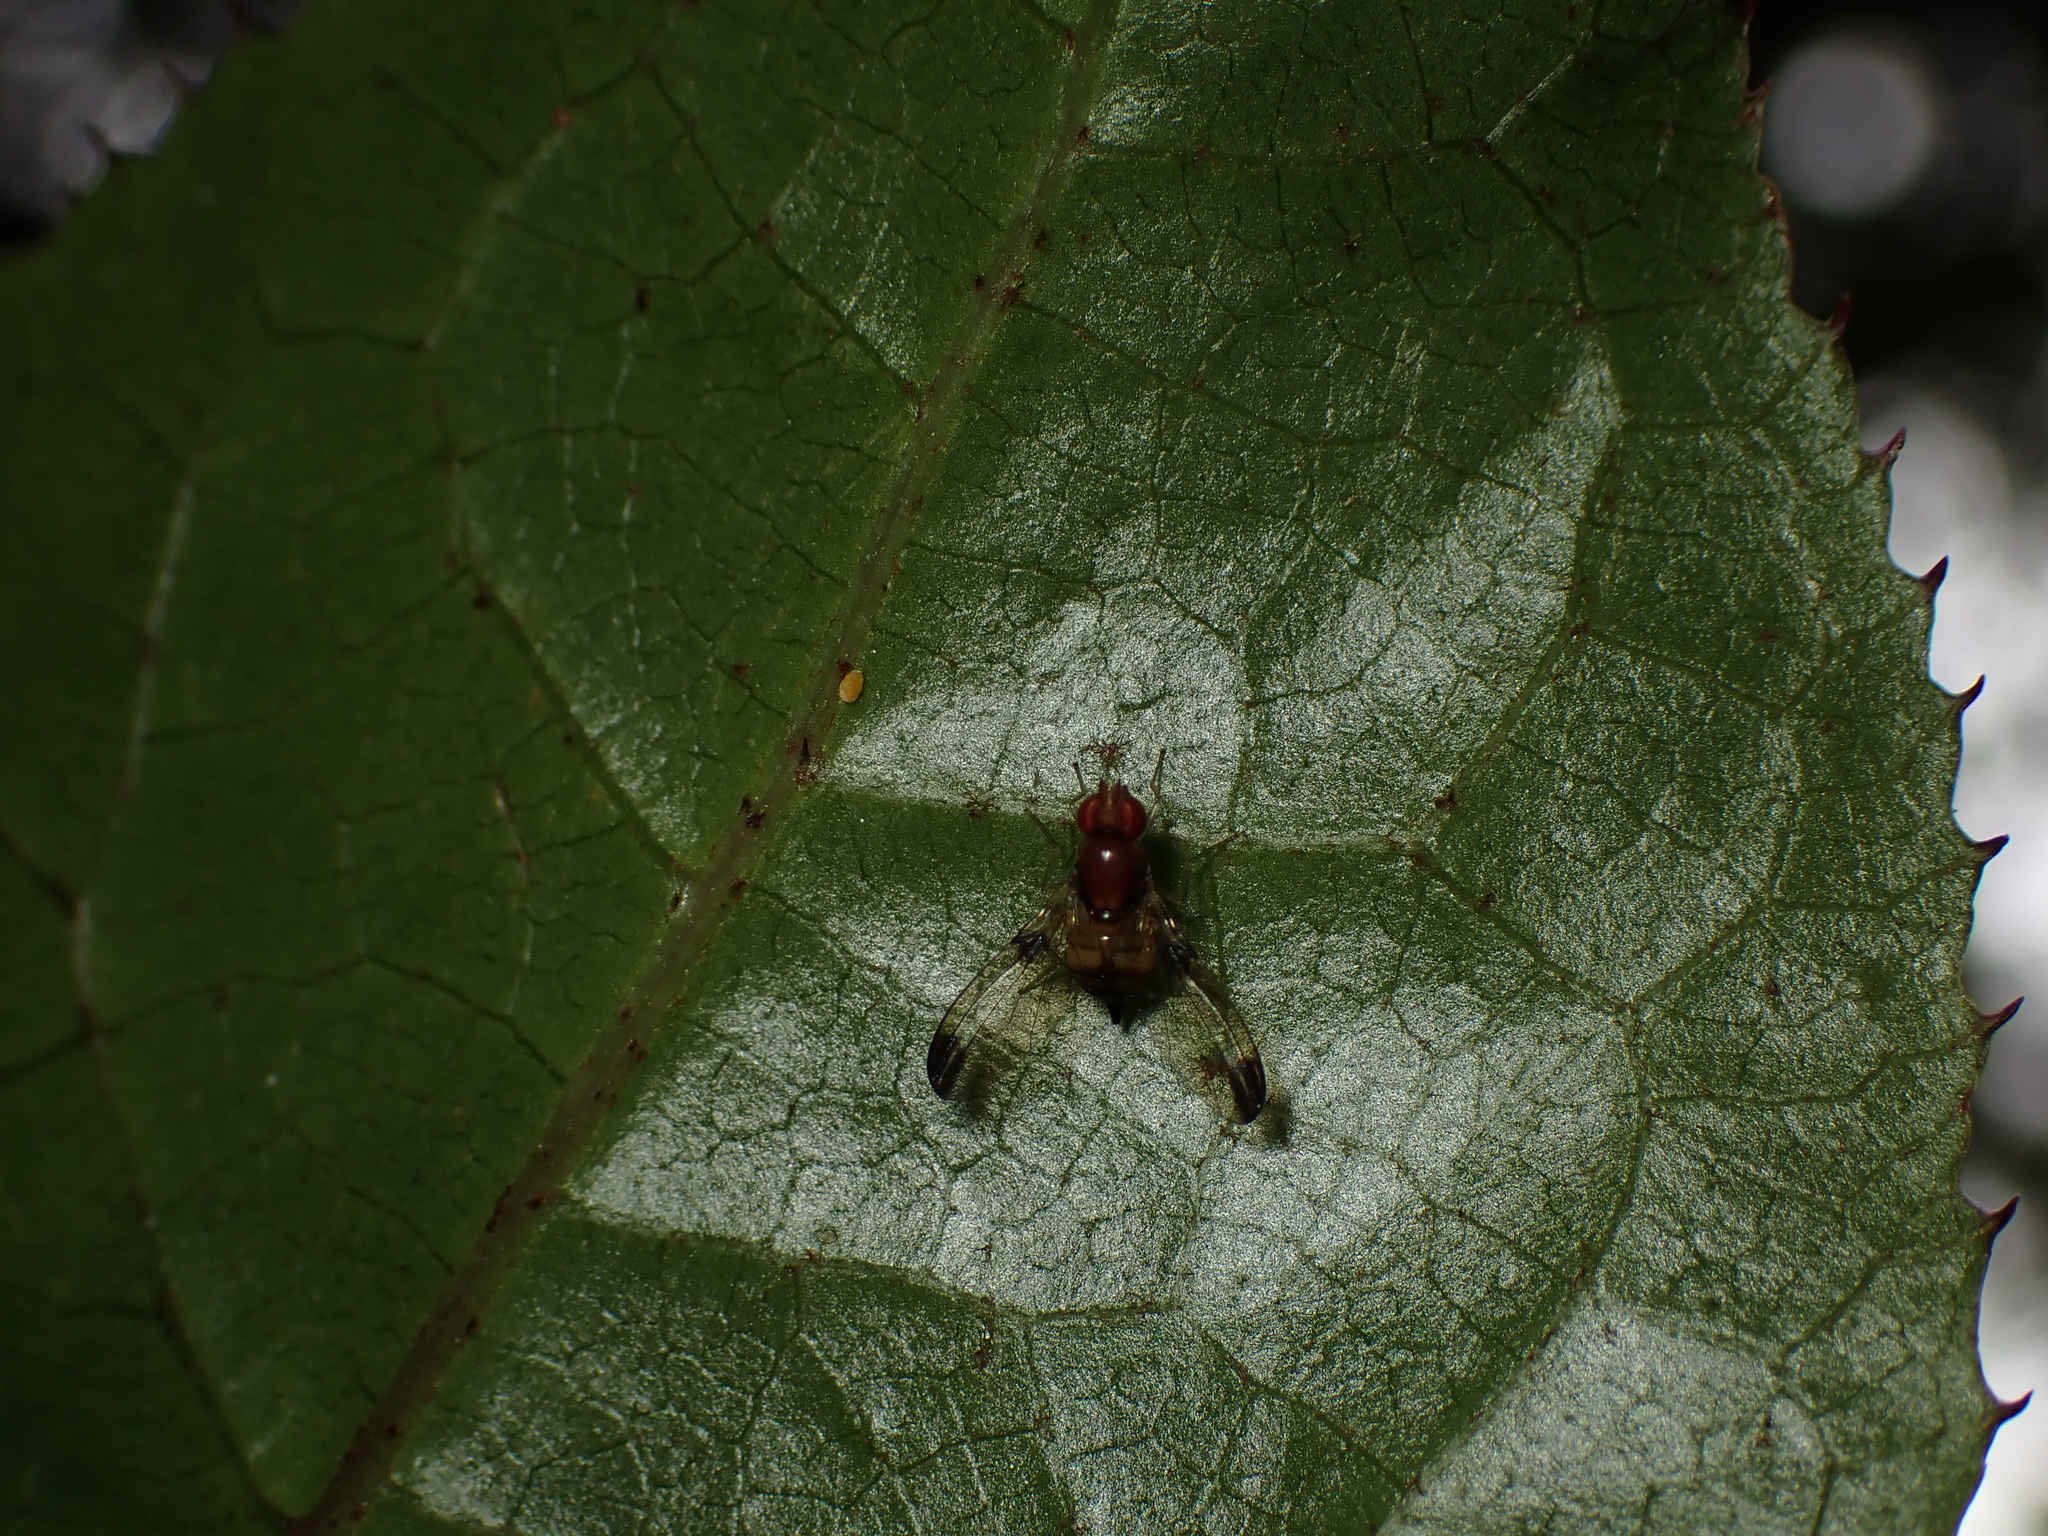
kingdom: Animalia
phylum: Arthropoda
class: Insecta
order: Diptera
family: Pallopteridae
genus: Neomaorina
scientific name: Neomaorina bimacula
